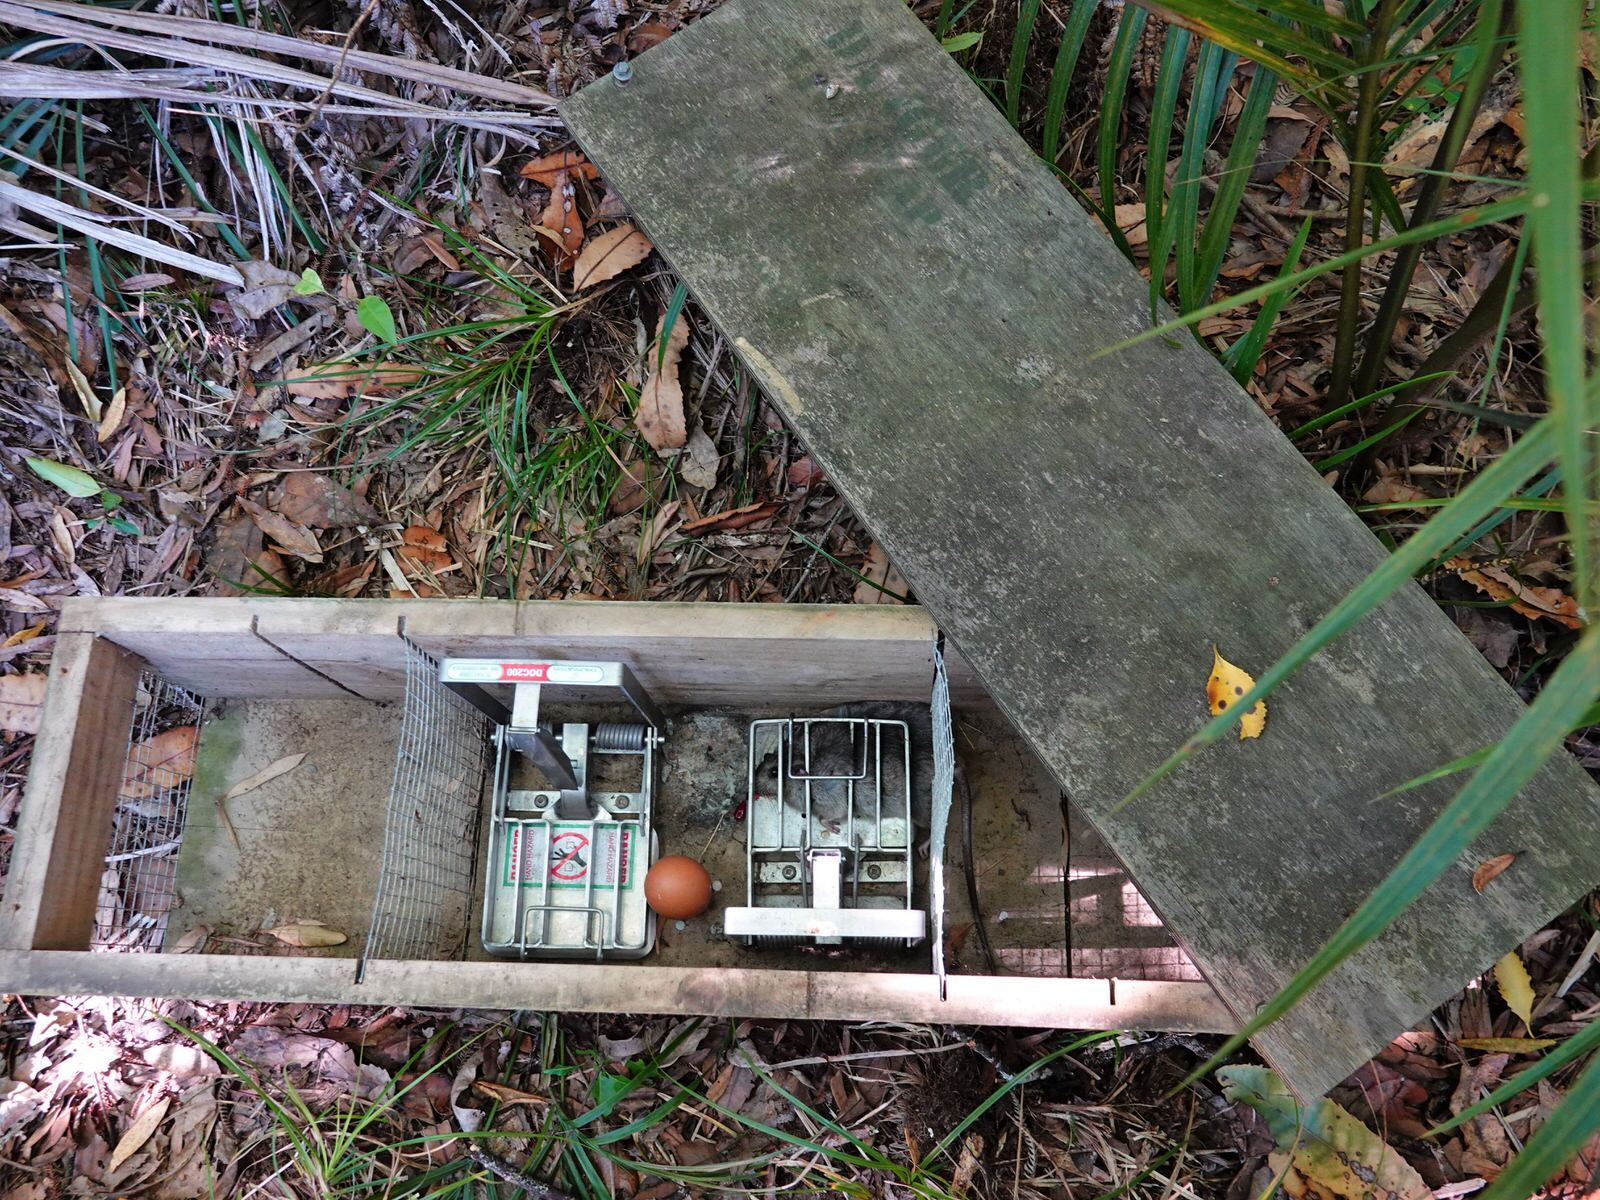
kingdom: Animalia
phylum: Chordata
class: Mammalia
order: Rodentia
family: Muridae
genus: Rattus
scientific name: Rattus rattus
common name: Black rat
